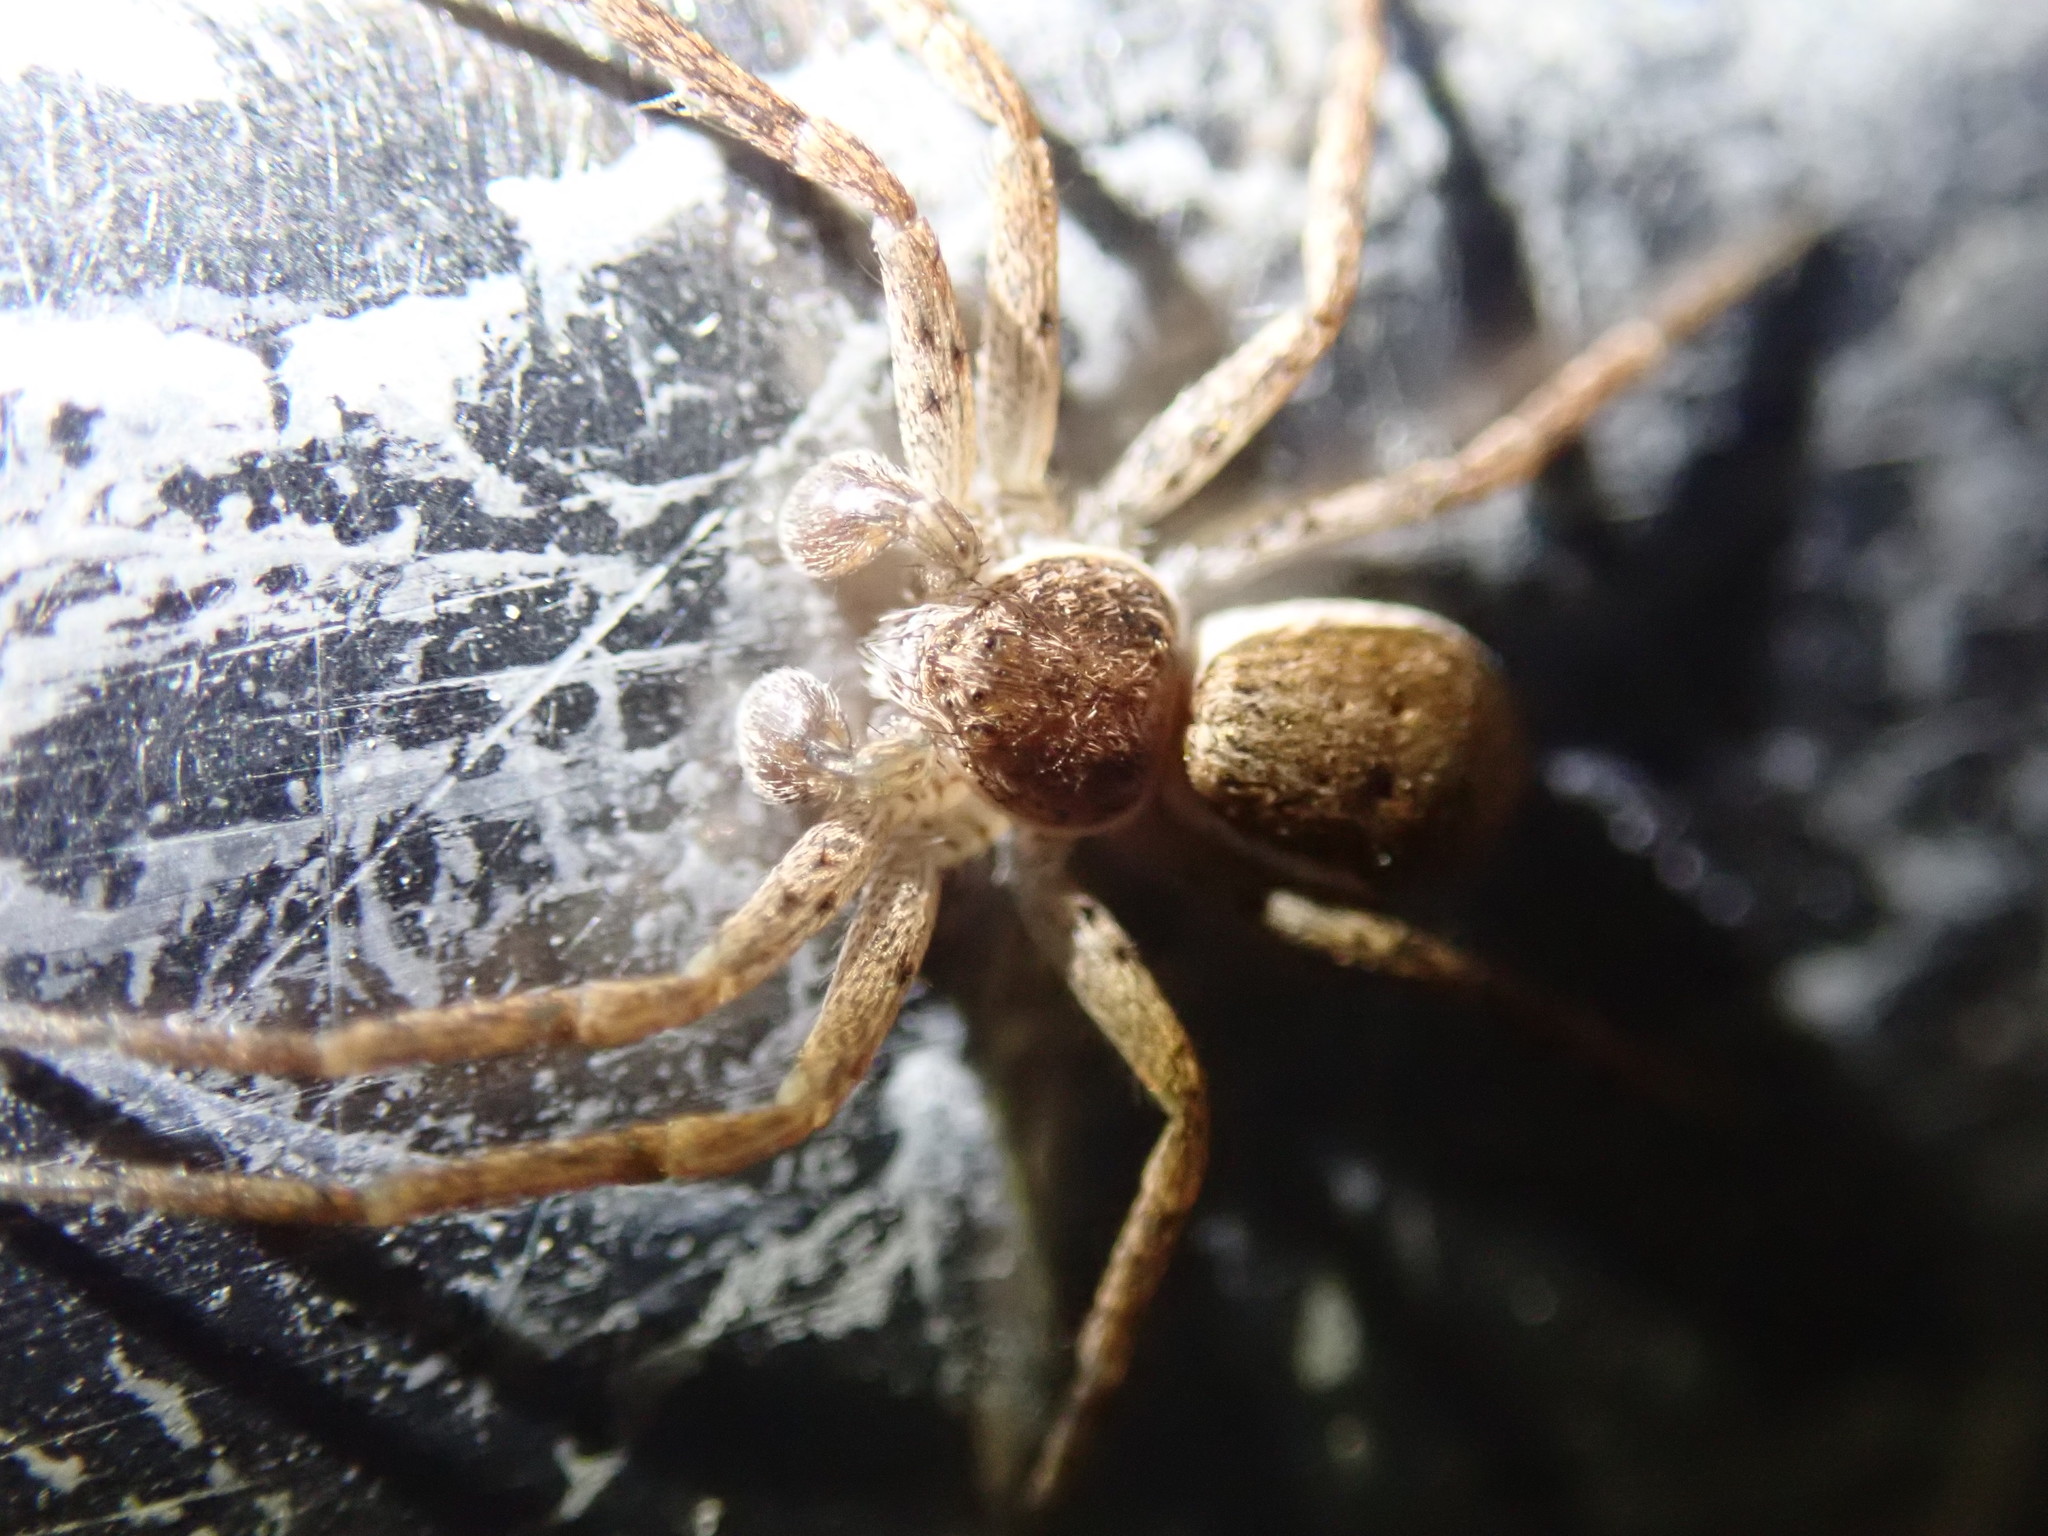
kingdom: Animalia
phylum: Arthropoda
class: Arachnida
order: Araneae
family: Philodromidae
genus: Philodromus
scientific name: Philodromus dispar
